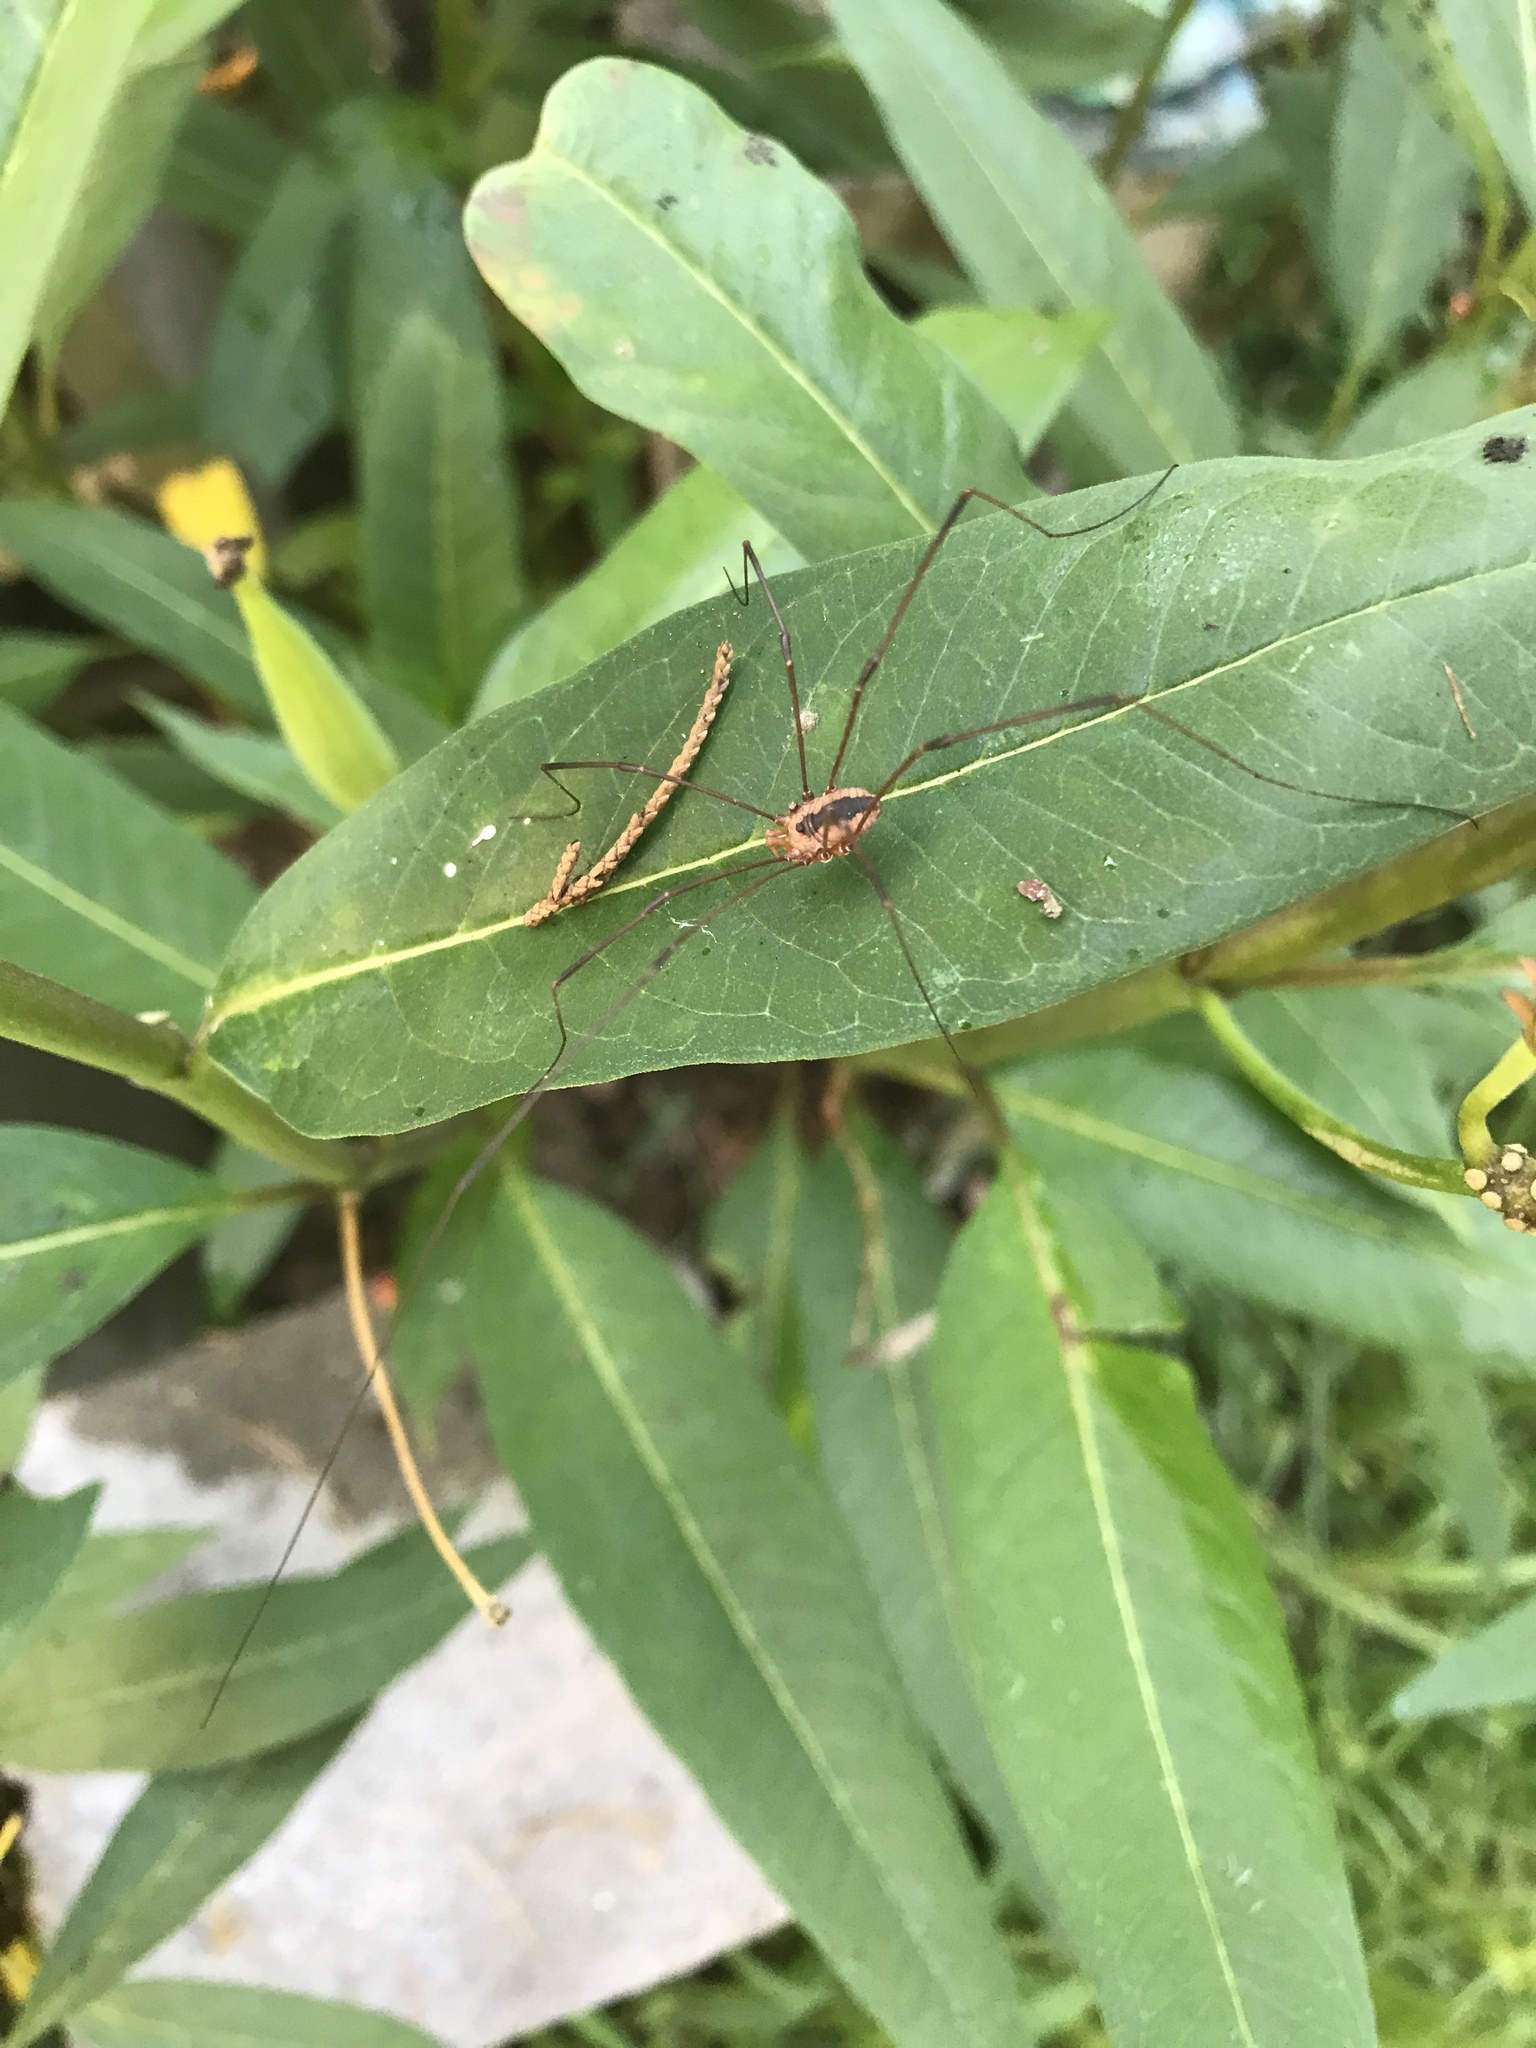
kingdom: Animalia
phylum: Arthropoda
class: Arachnida
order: Opiliones
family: Sclerosomatidae
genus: Leiobunum
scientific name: Leiobunum vittatum
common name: Eastern harvestman
